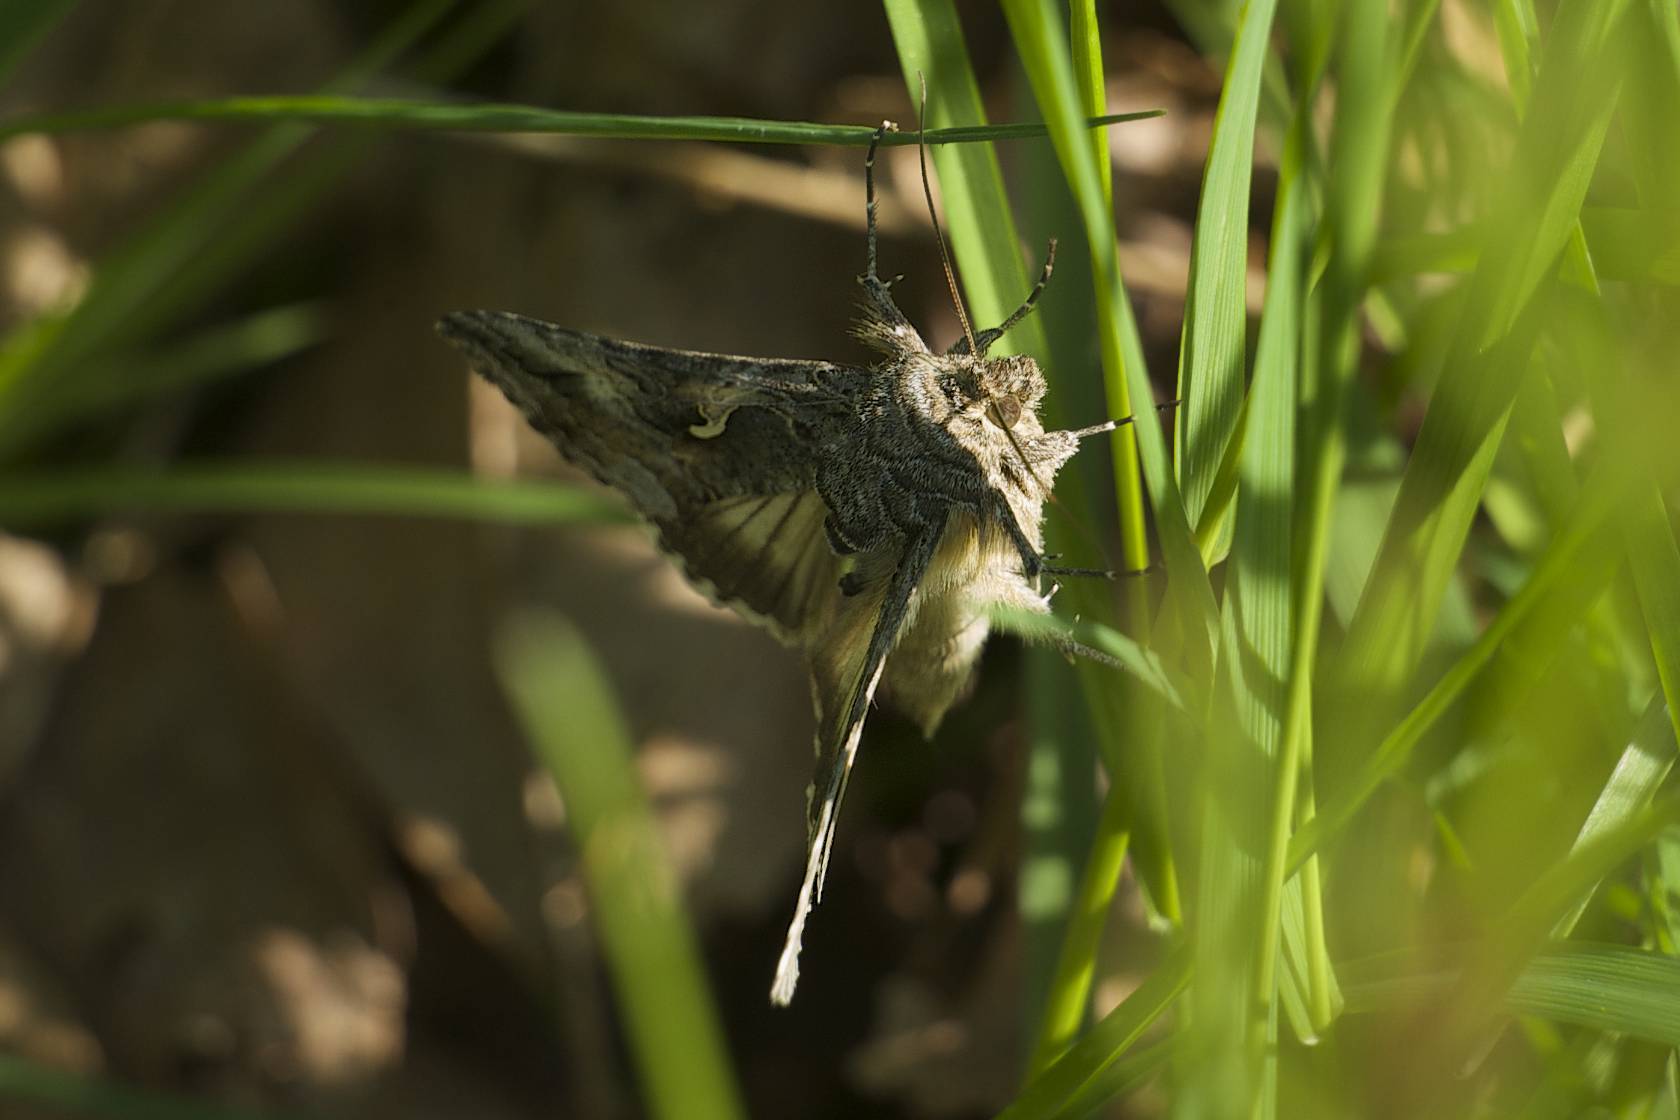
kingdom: Animalia
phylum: Arthropoda
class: Insecta
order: Lepidoptera
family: Noctuidae
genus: Autographa
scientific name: Autographa californica
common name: Alfalfa looper
